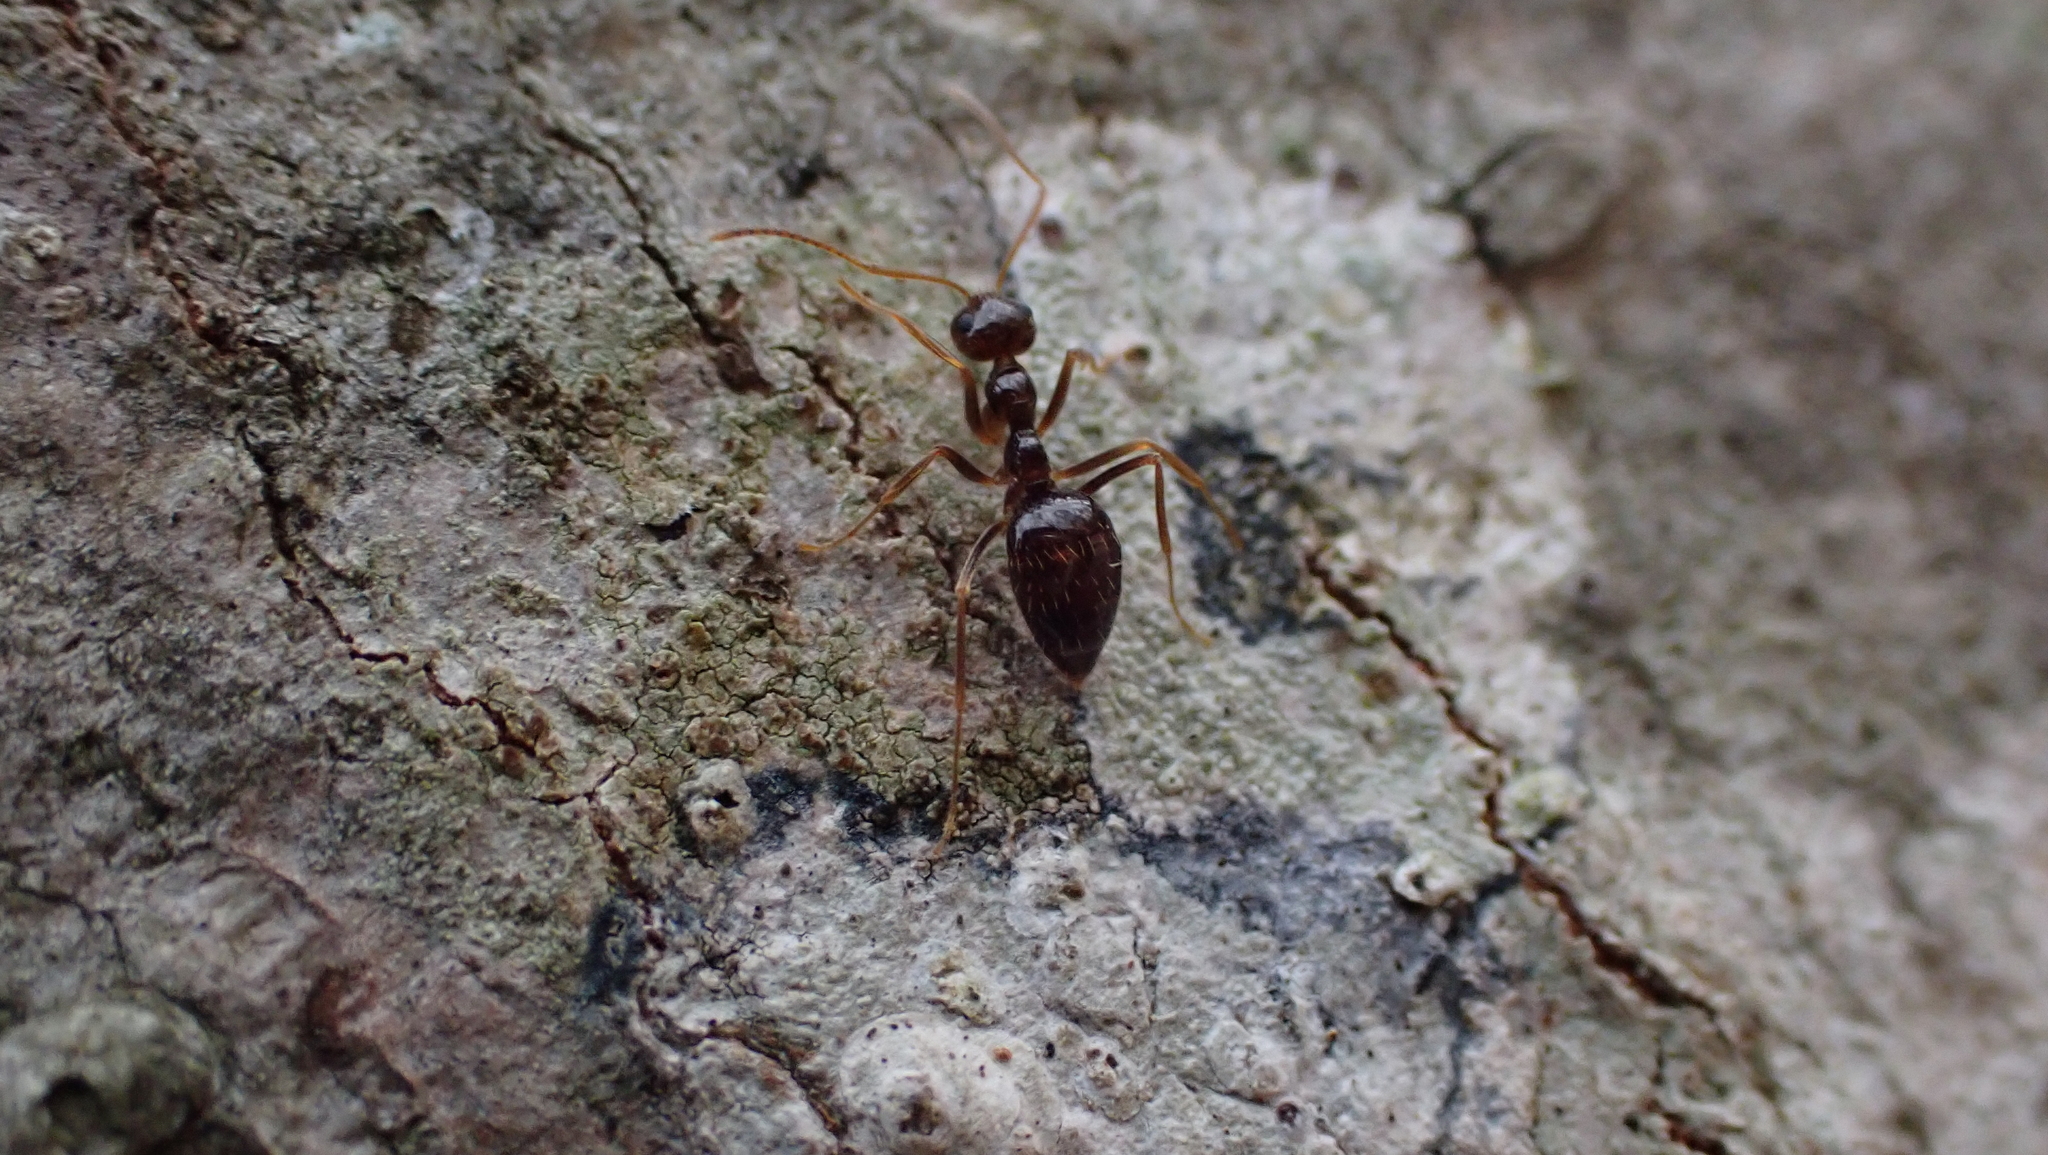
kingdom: Animalia
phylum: Arthropoda
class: Insecta
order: Hymenoptera
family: Formicidae
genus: Prenolepis
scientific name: Prenolepis imparis
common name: Small honey ant
